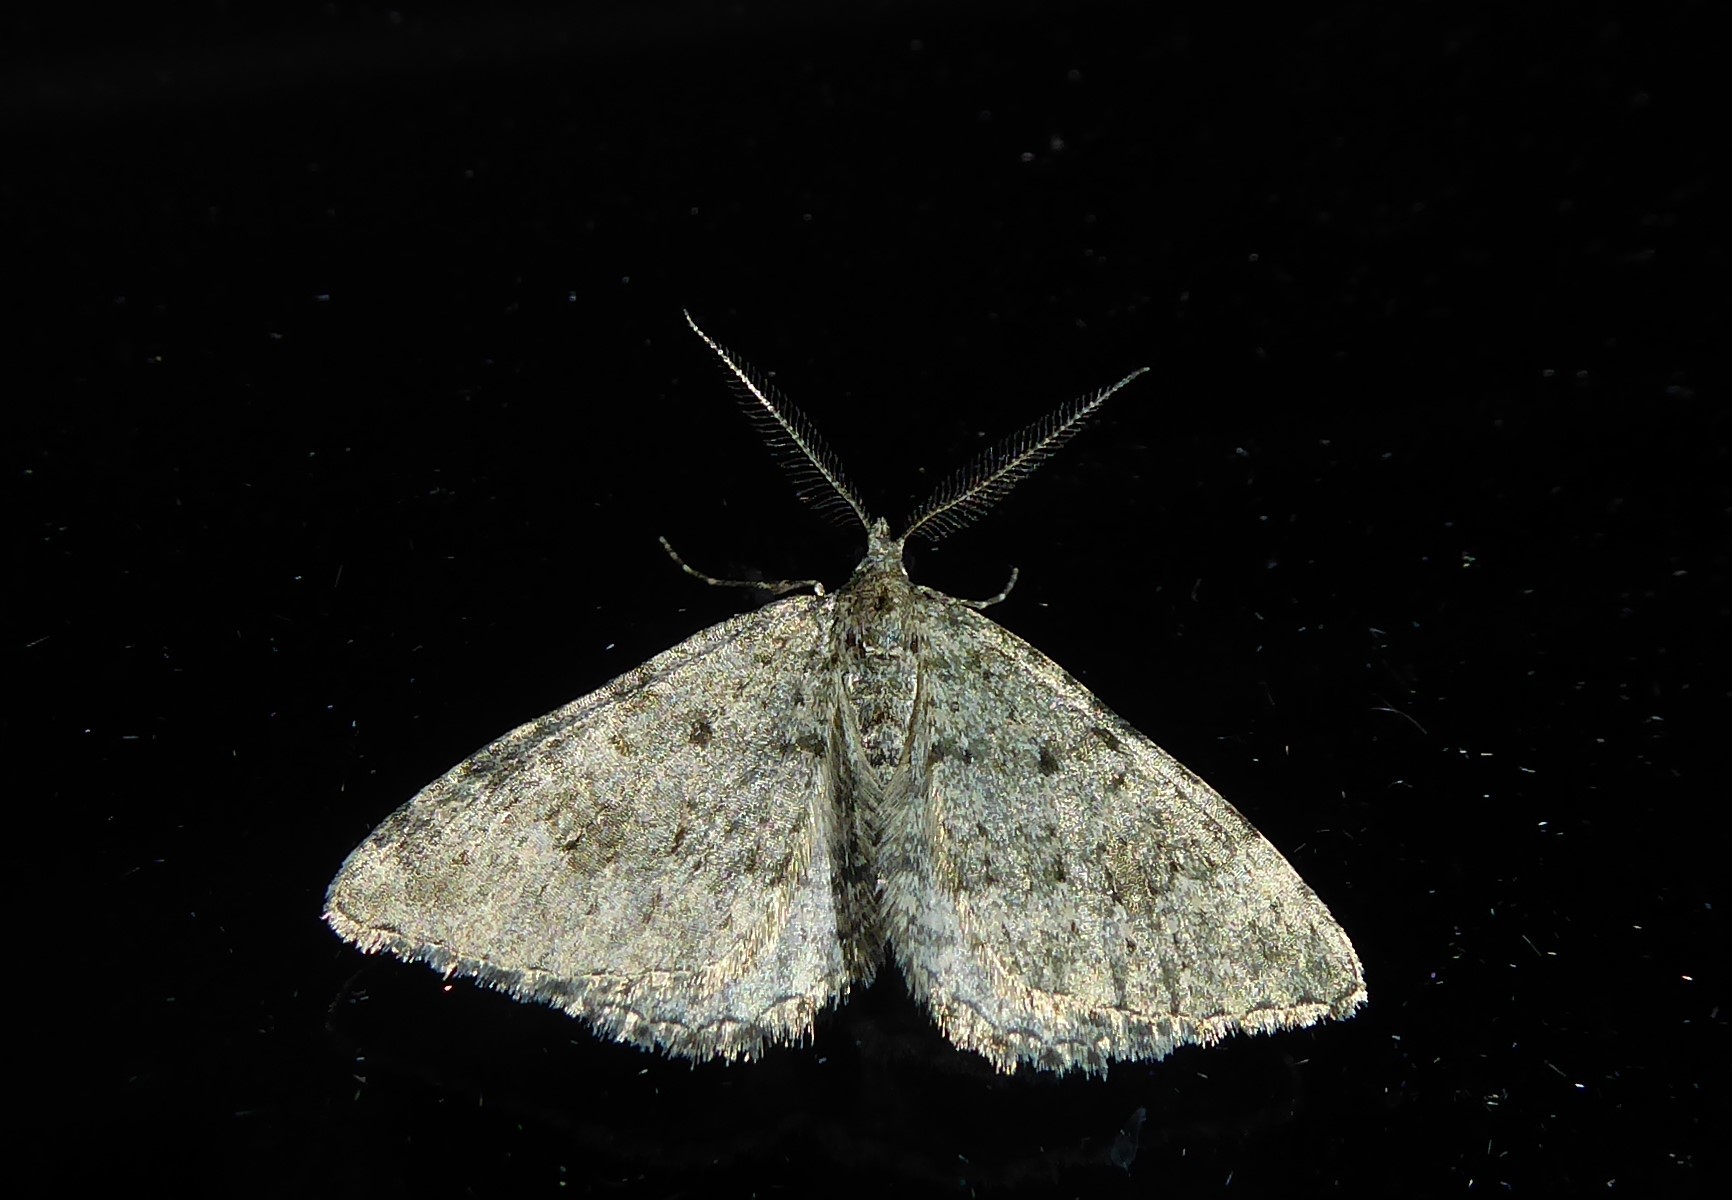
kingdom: Animalia
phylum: Arthropoda
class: Insecta
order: Lepidoptera
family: Geometridae
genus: Helastia
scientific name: Helastia corcularia
